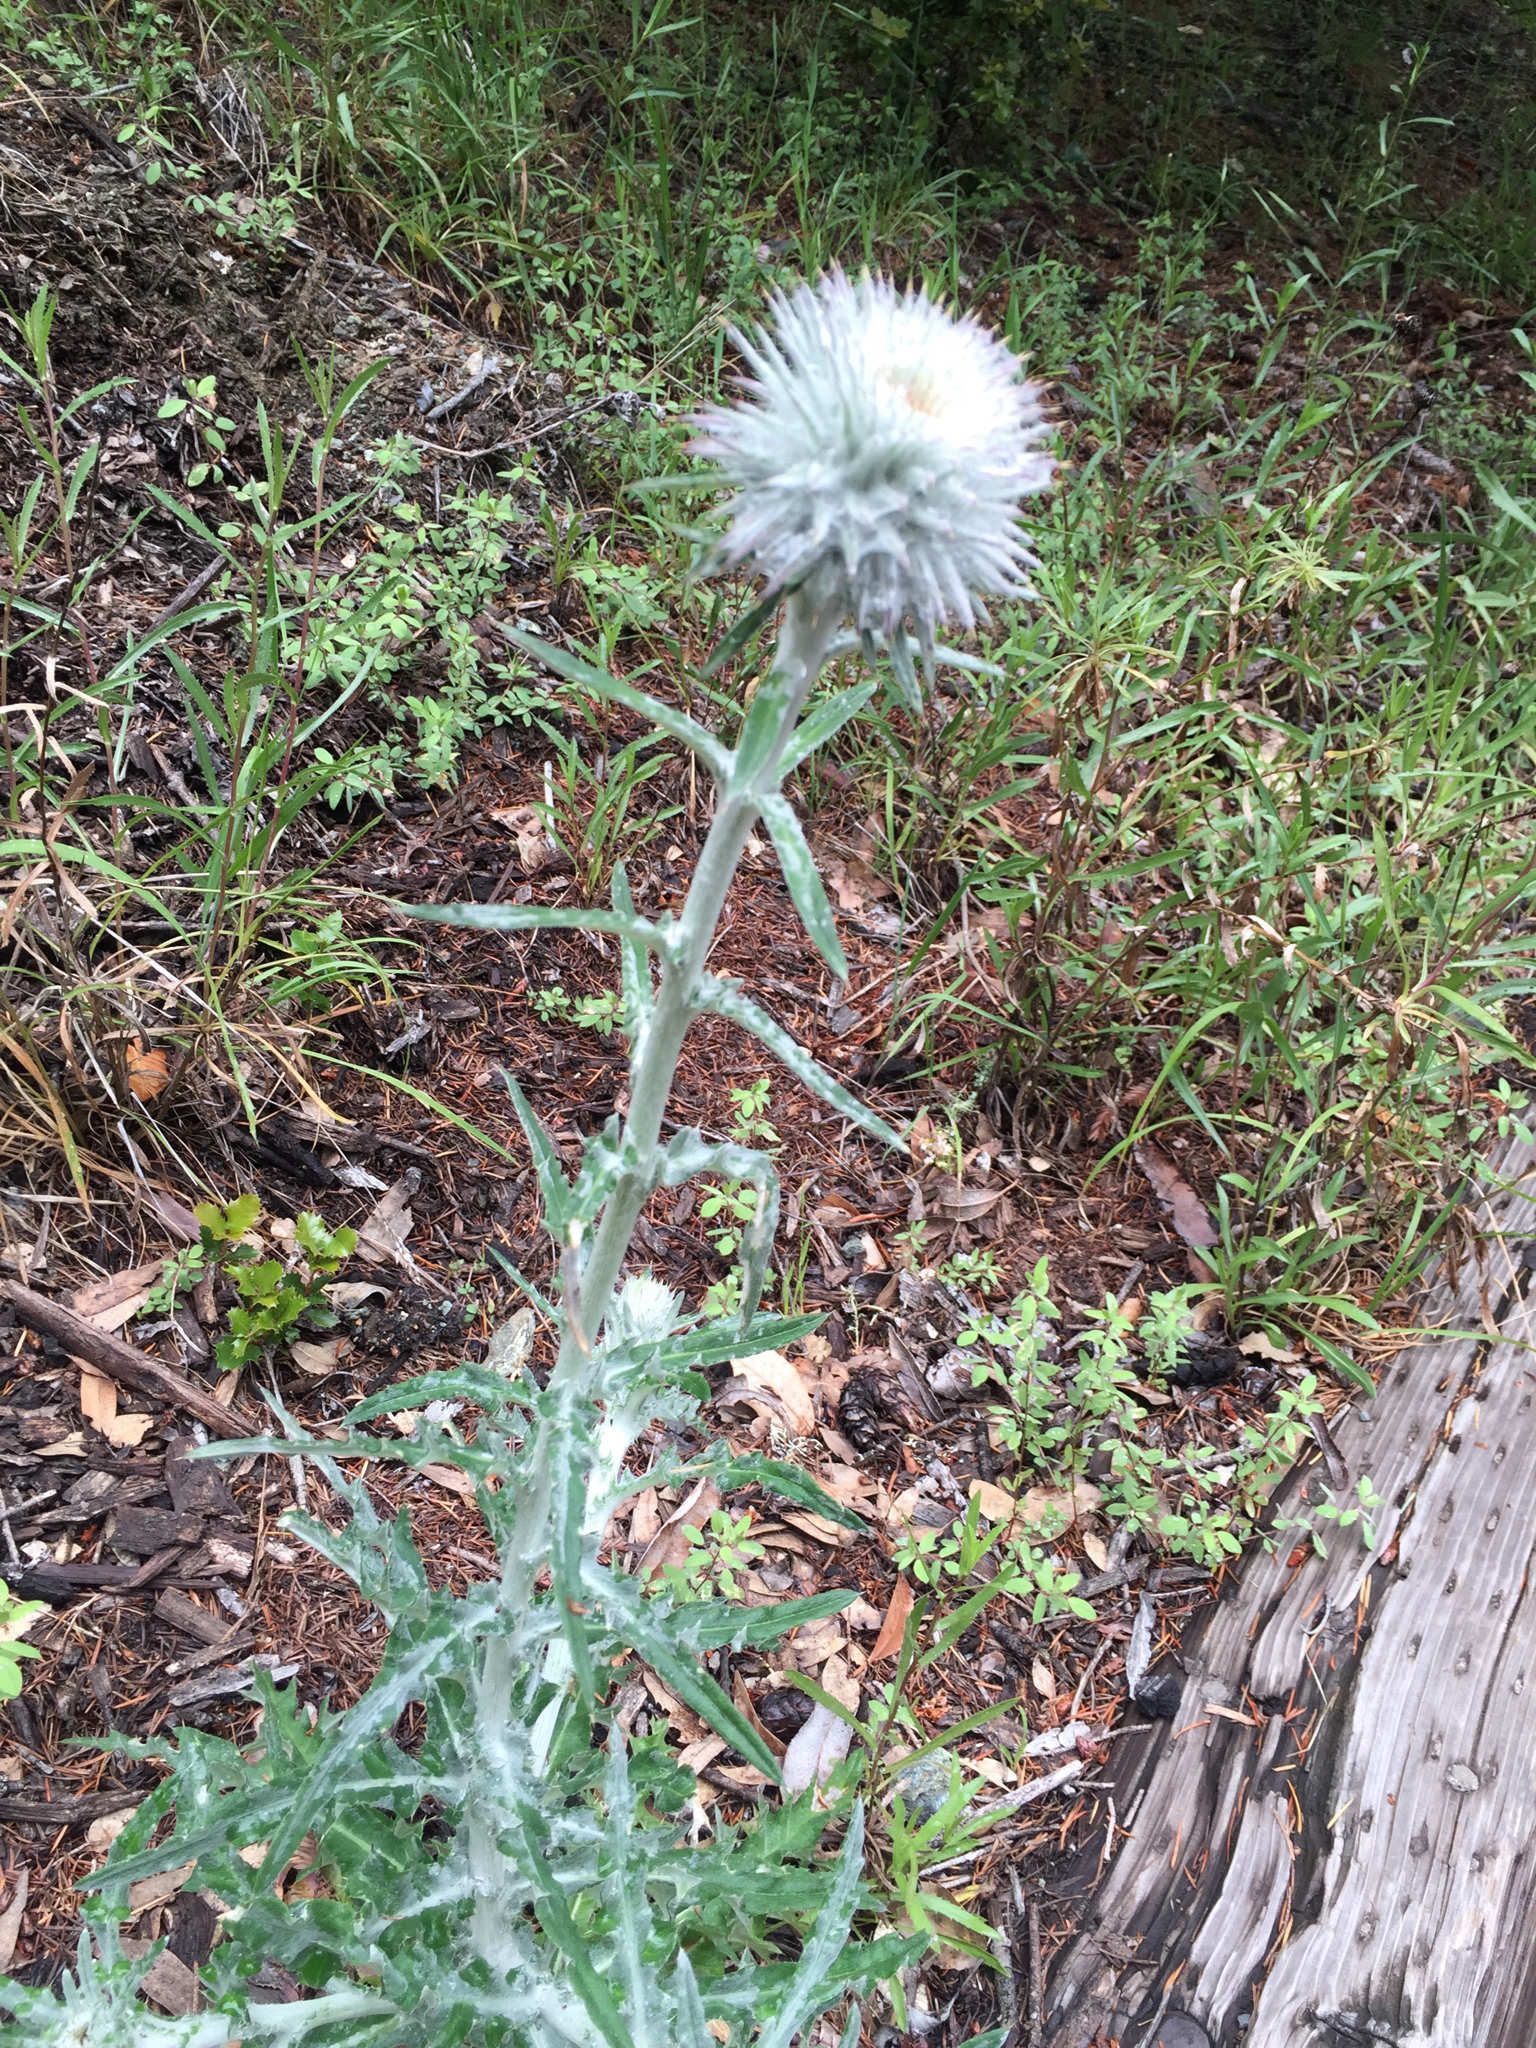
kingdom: Plantae
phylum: Tracheophyta
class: Magnoliopsida
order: Asterales
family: Asteraceae
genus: Cirsium
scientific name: Cirsium occidentale
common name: Western thistle
